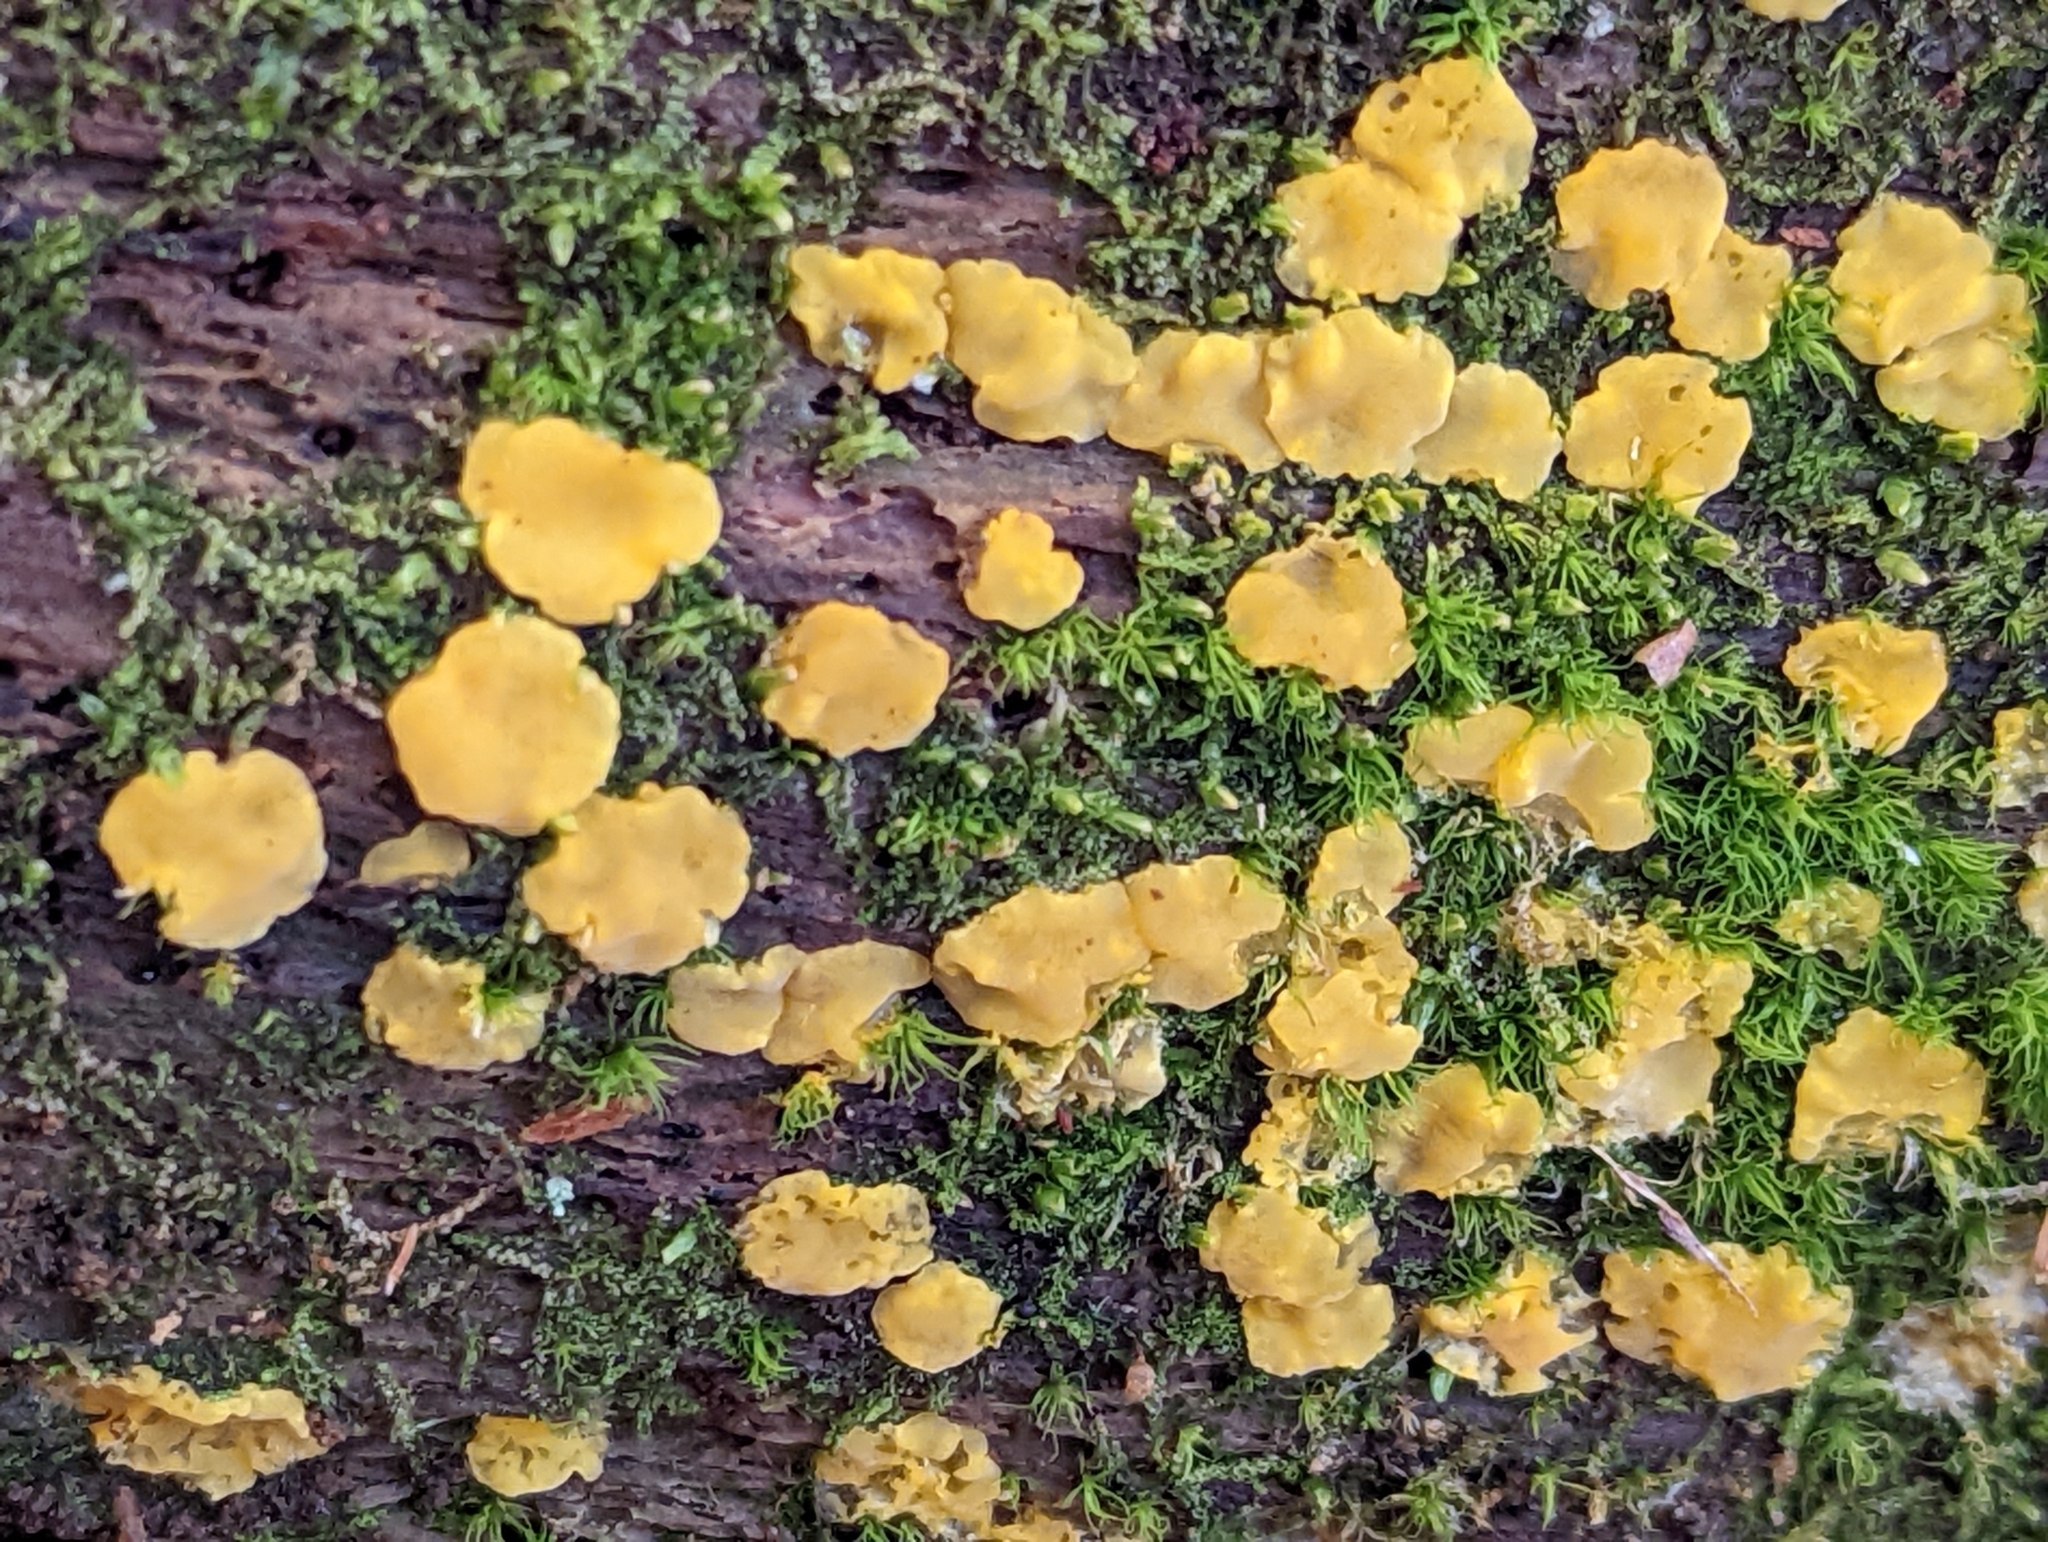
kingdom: Fungi
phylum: Basidiomycota
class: Dacrymycetes
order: Dacrymycetales
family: Dacrymycetaceae
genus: Dacrymyces
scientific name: Dacrymyces corticioides
